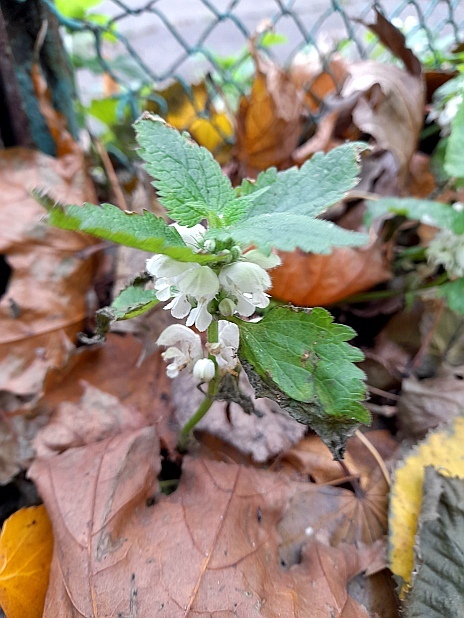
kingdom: Plantae
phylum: Tracheophyta
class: Magnoliopsida
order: Lamiales
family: Lamiaceae
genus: Lamium
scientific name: Lamium album
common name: White dead-nettle
